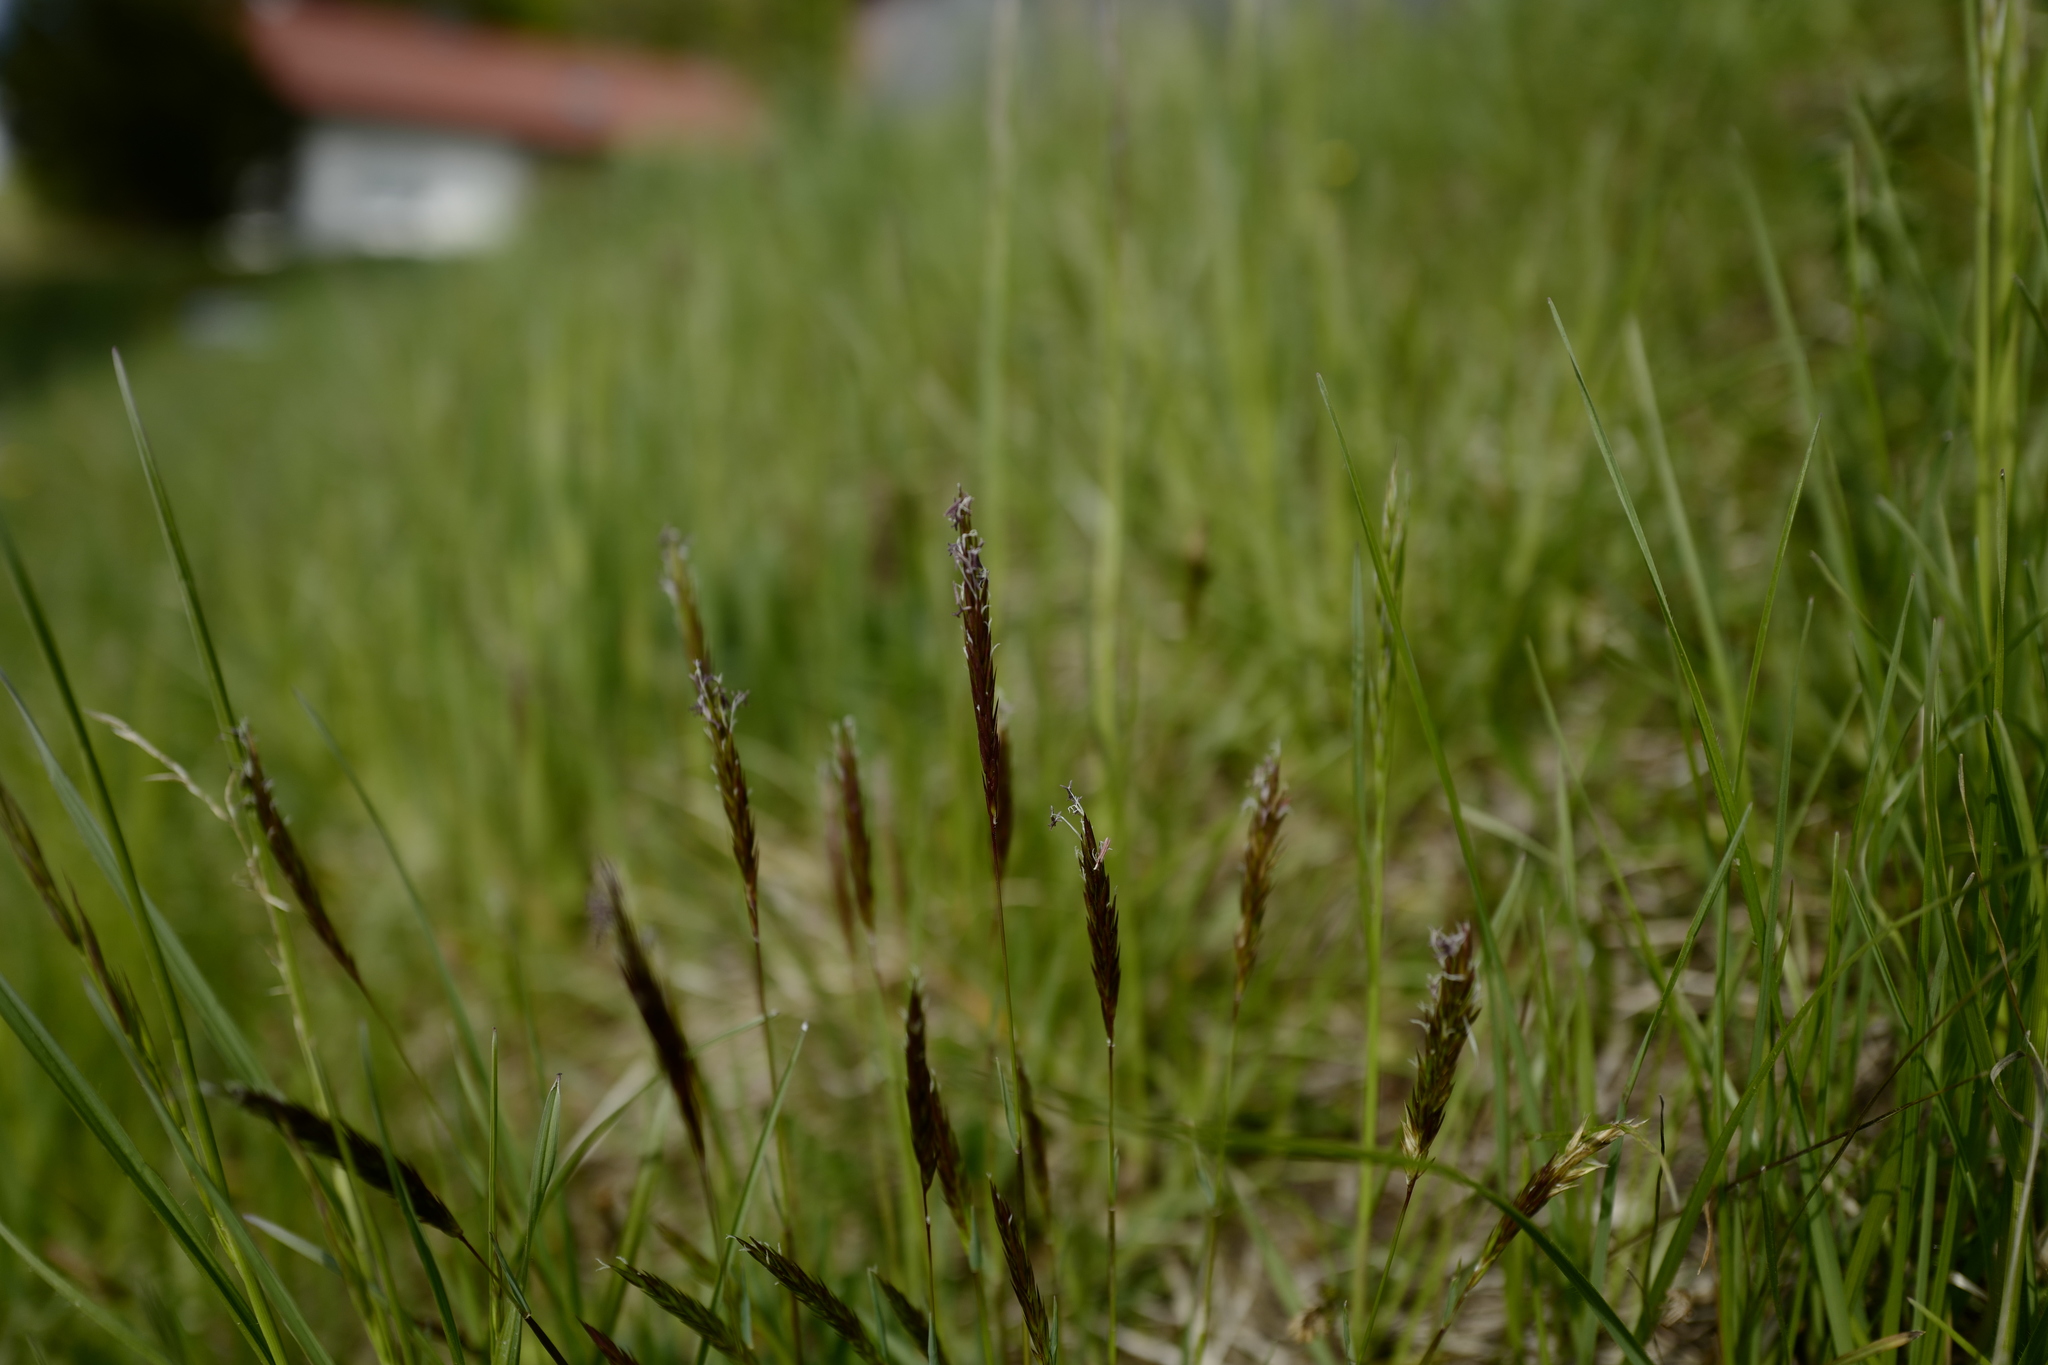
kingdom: Plantae
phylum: Tracheophyta
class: Liliopsida
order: Poales
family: Poaceae
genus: Anthoxanthum
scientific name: Anthoxanthum odoratum
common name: Sweet vernalgrass
